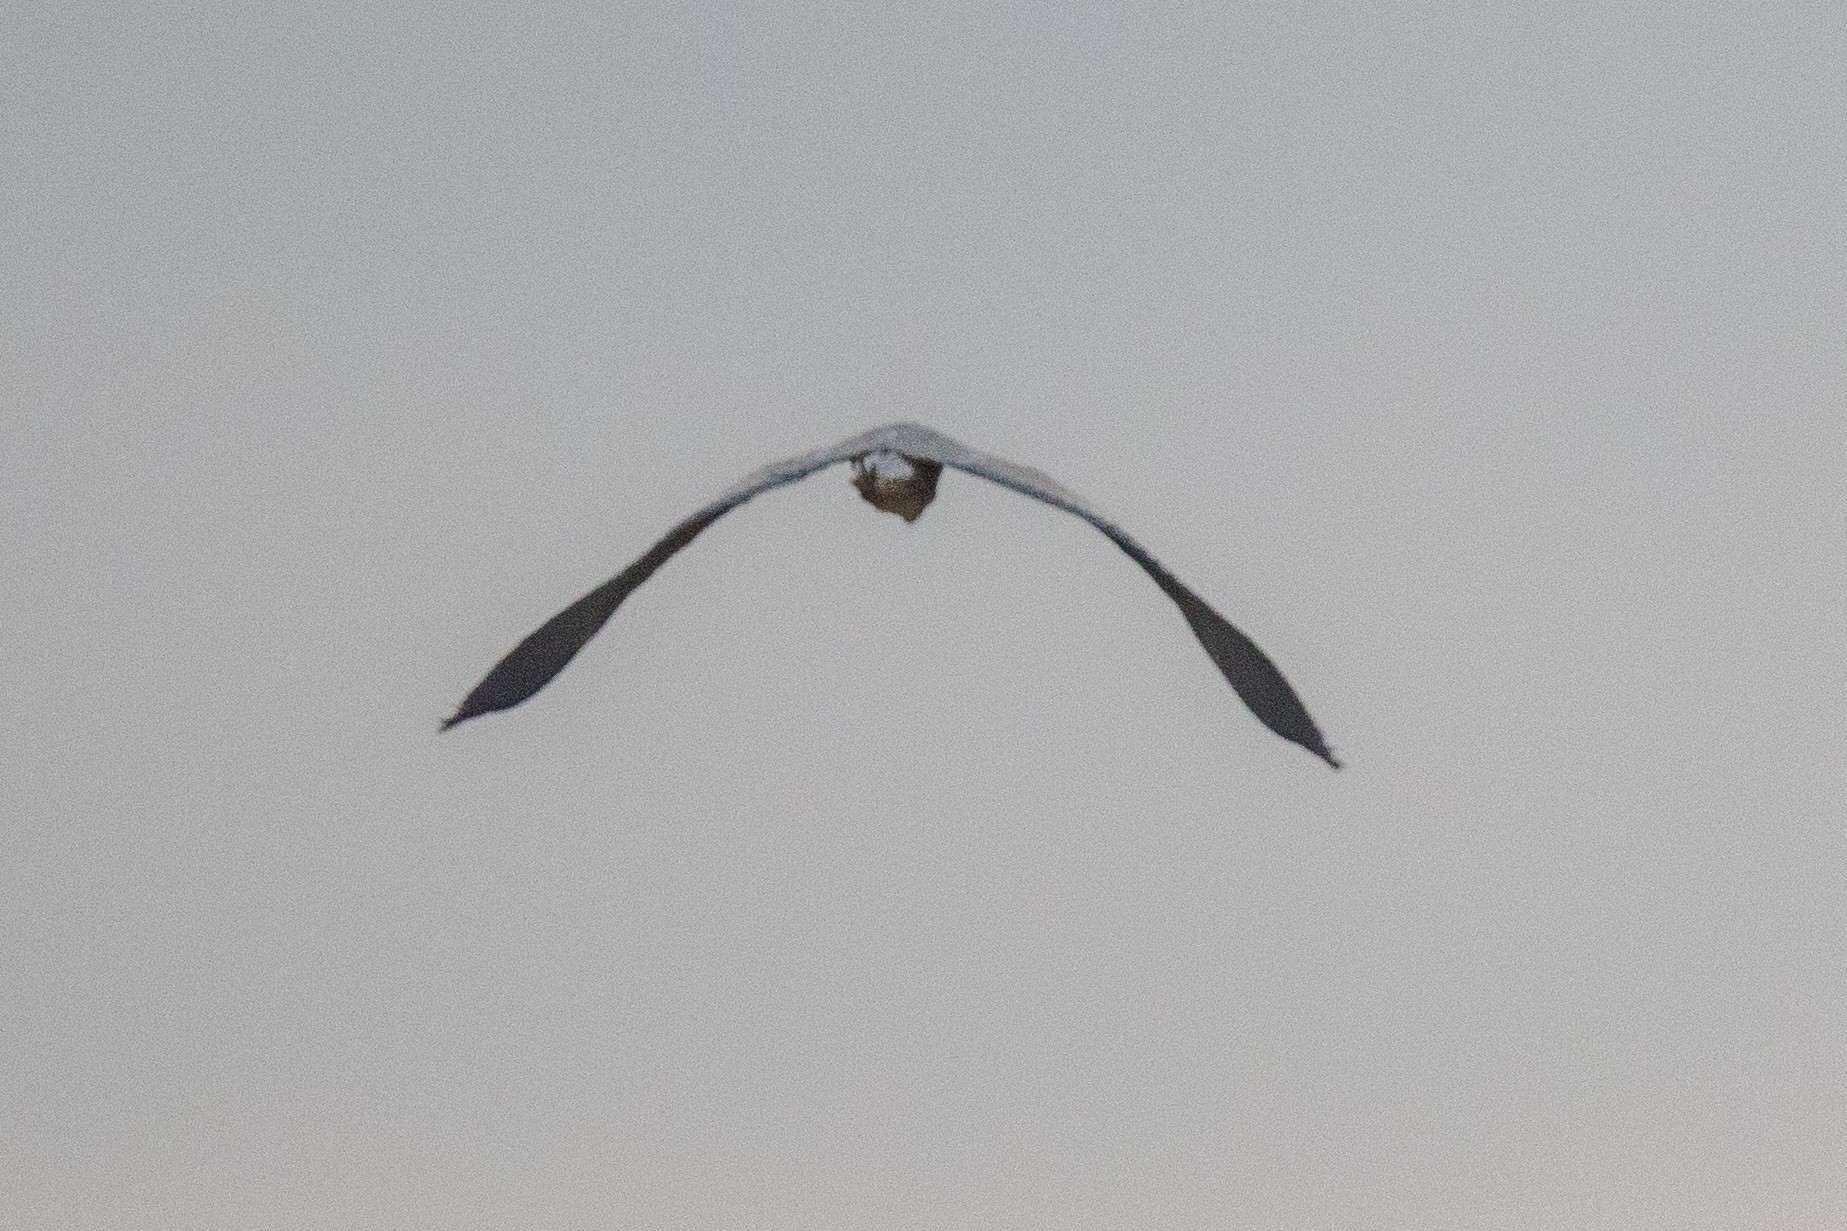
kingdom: Animalia
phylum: Chordata
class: Aves
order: Pelecaniformes
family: Ardeidae
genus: Ardea
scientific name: Ardea cinerea
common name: Grey heron
